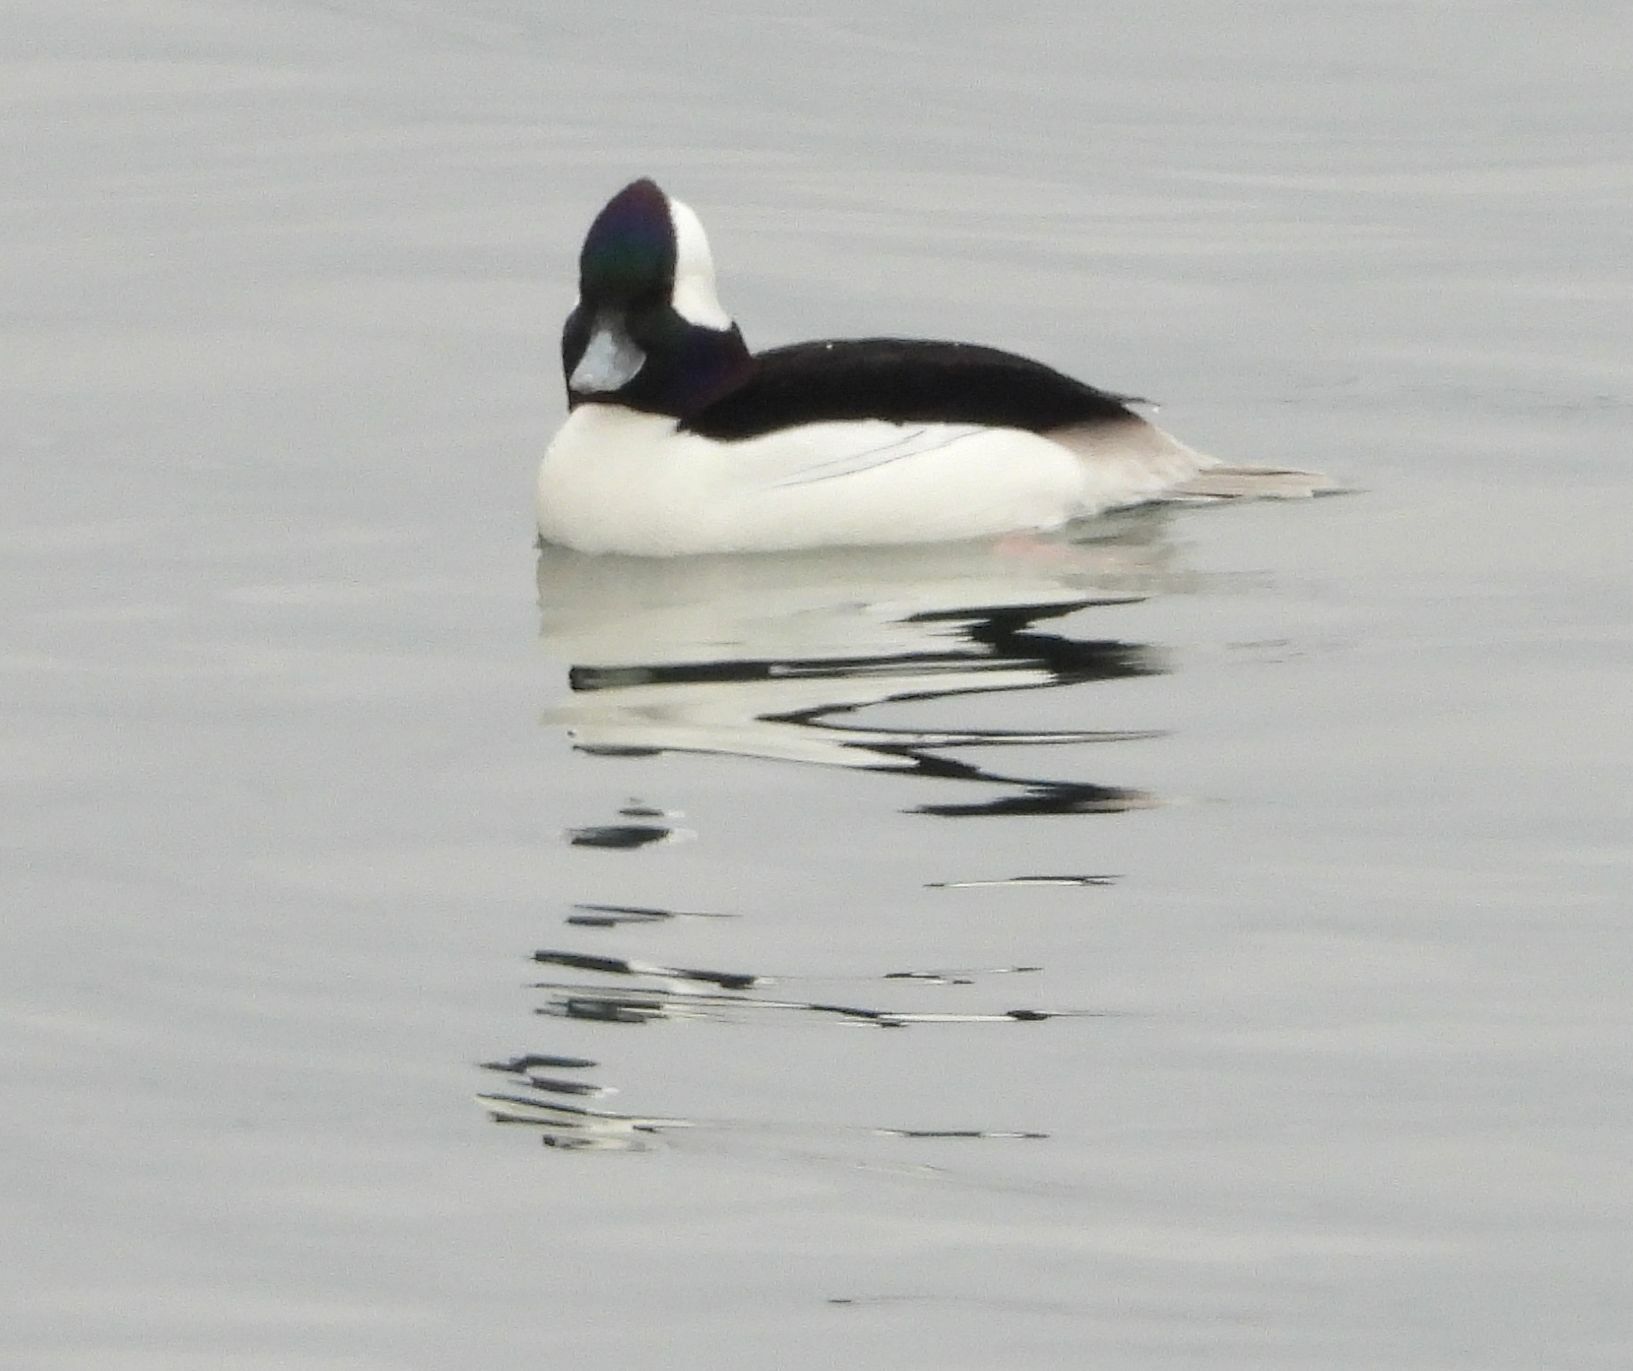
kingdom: Animalia
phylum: Chordata
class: Aves
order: Anseriformes
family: Anatidae
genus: Bucephala
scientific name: Bucephala albeola
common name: Bufflehead
